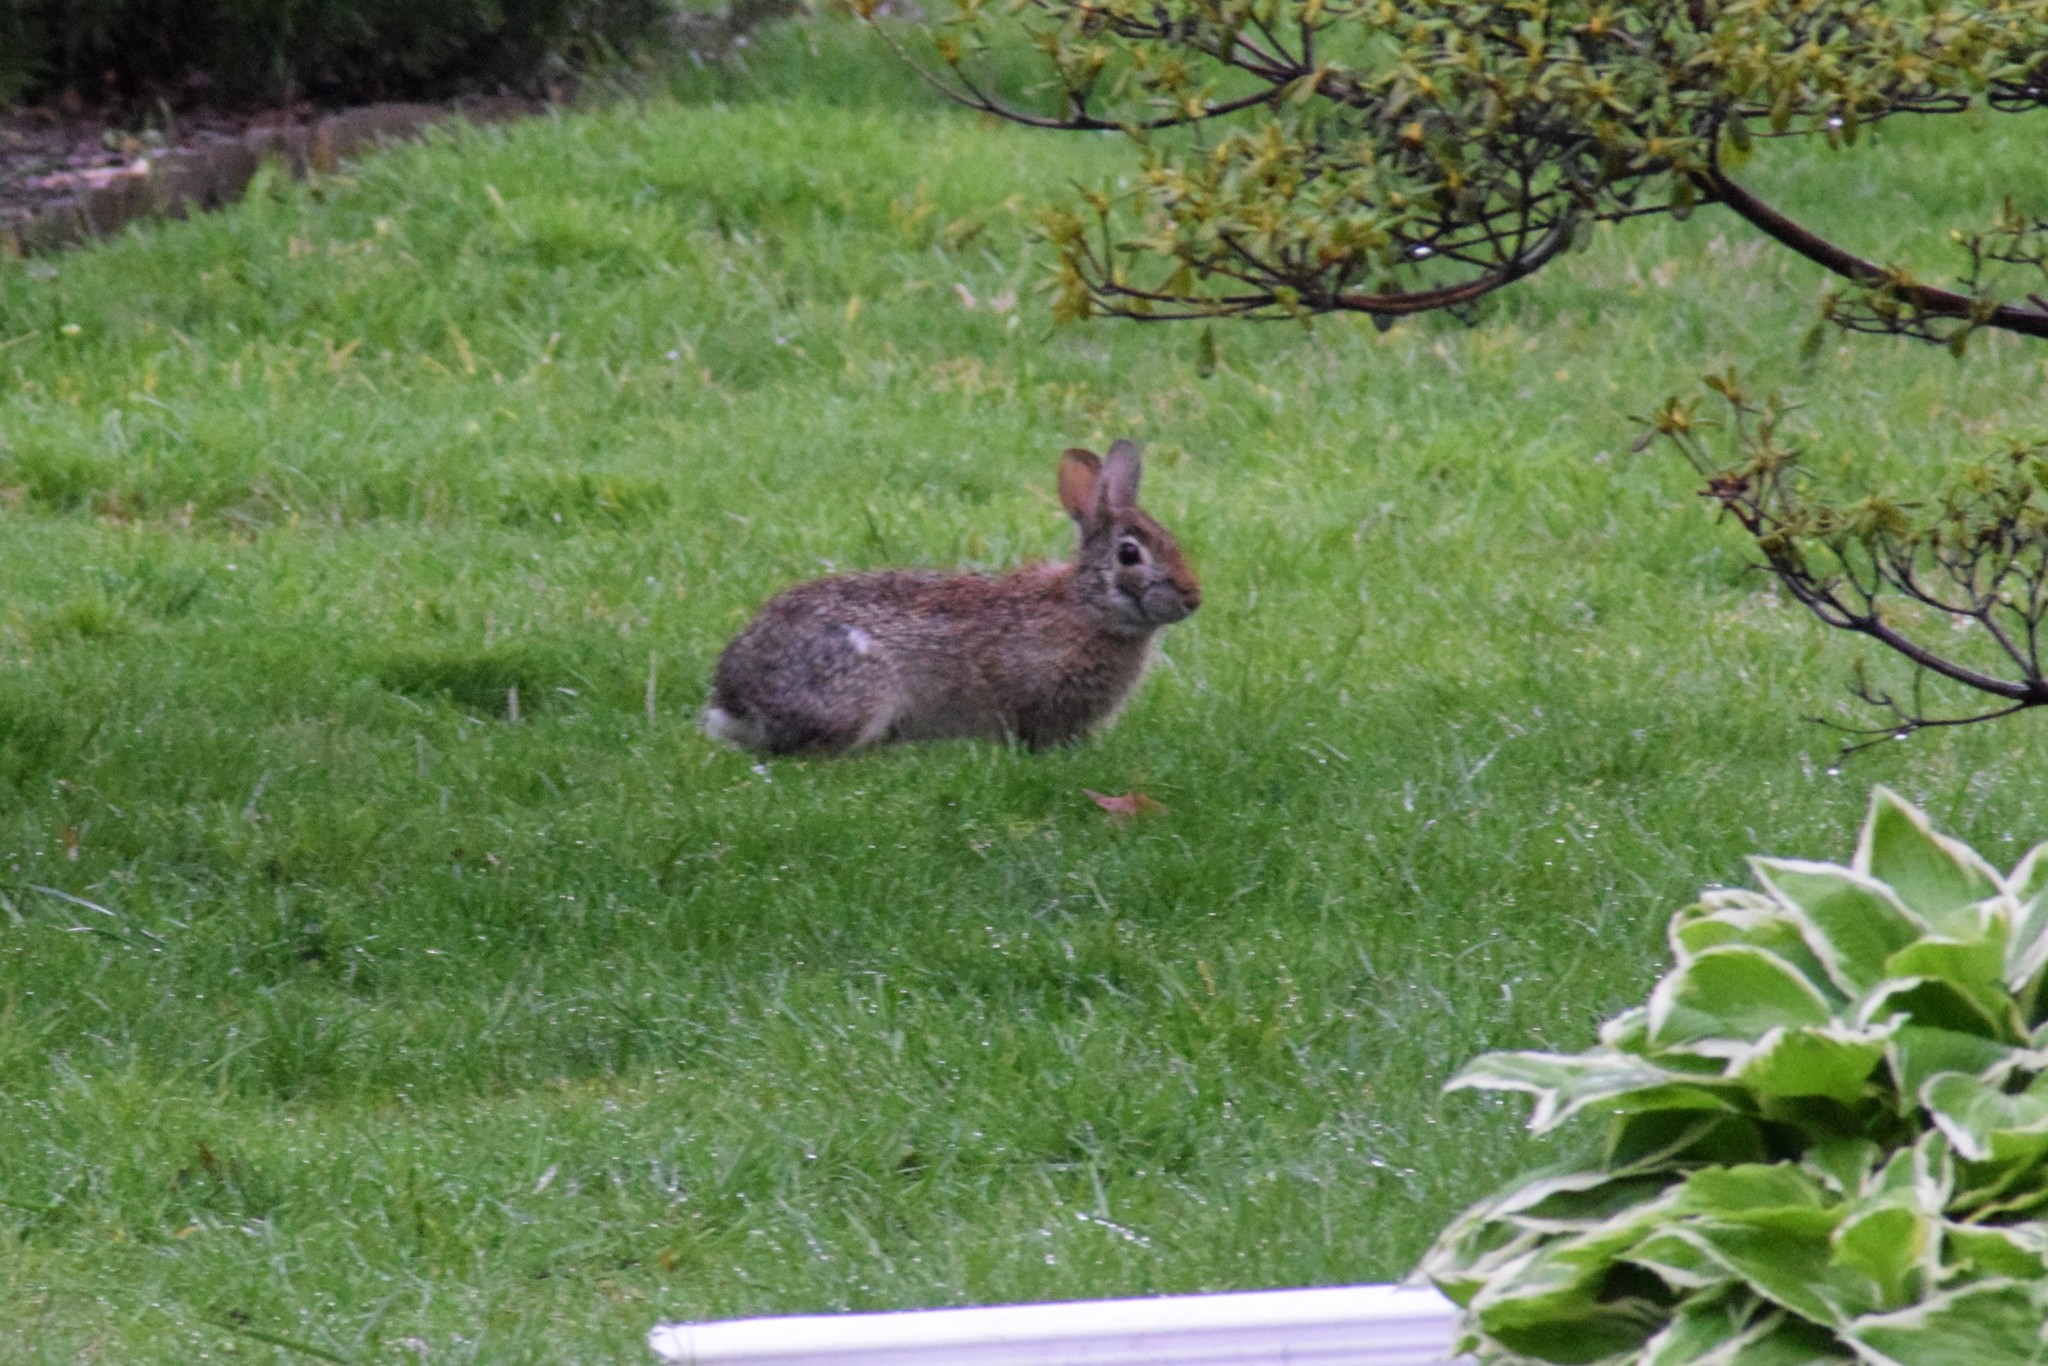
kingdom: Animalia
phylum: Chordata
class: Mammalia
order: Lagomorpha
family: Leporidae
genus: Sylvilagus
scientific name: Sylvilagus floridanus
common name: Eastern cottontail
